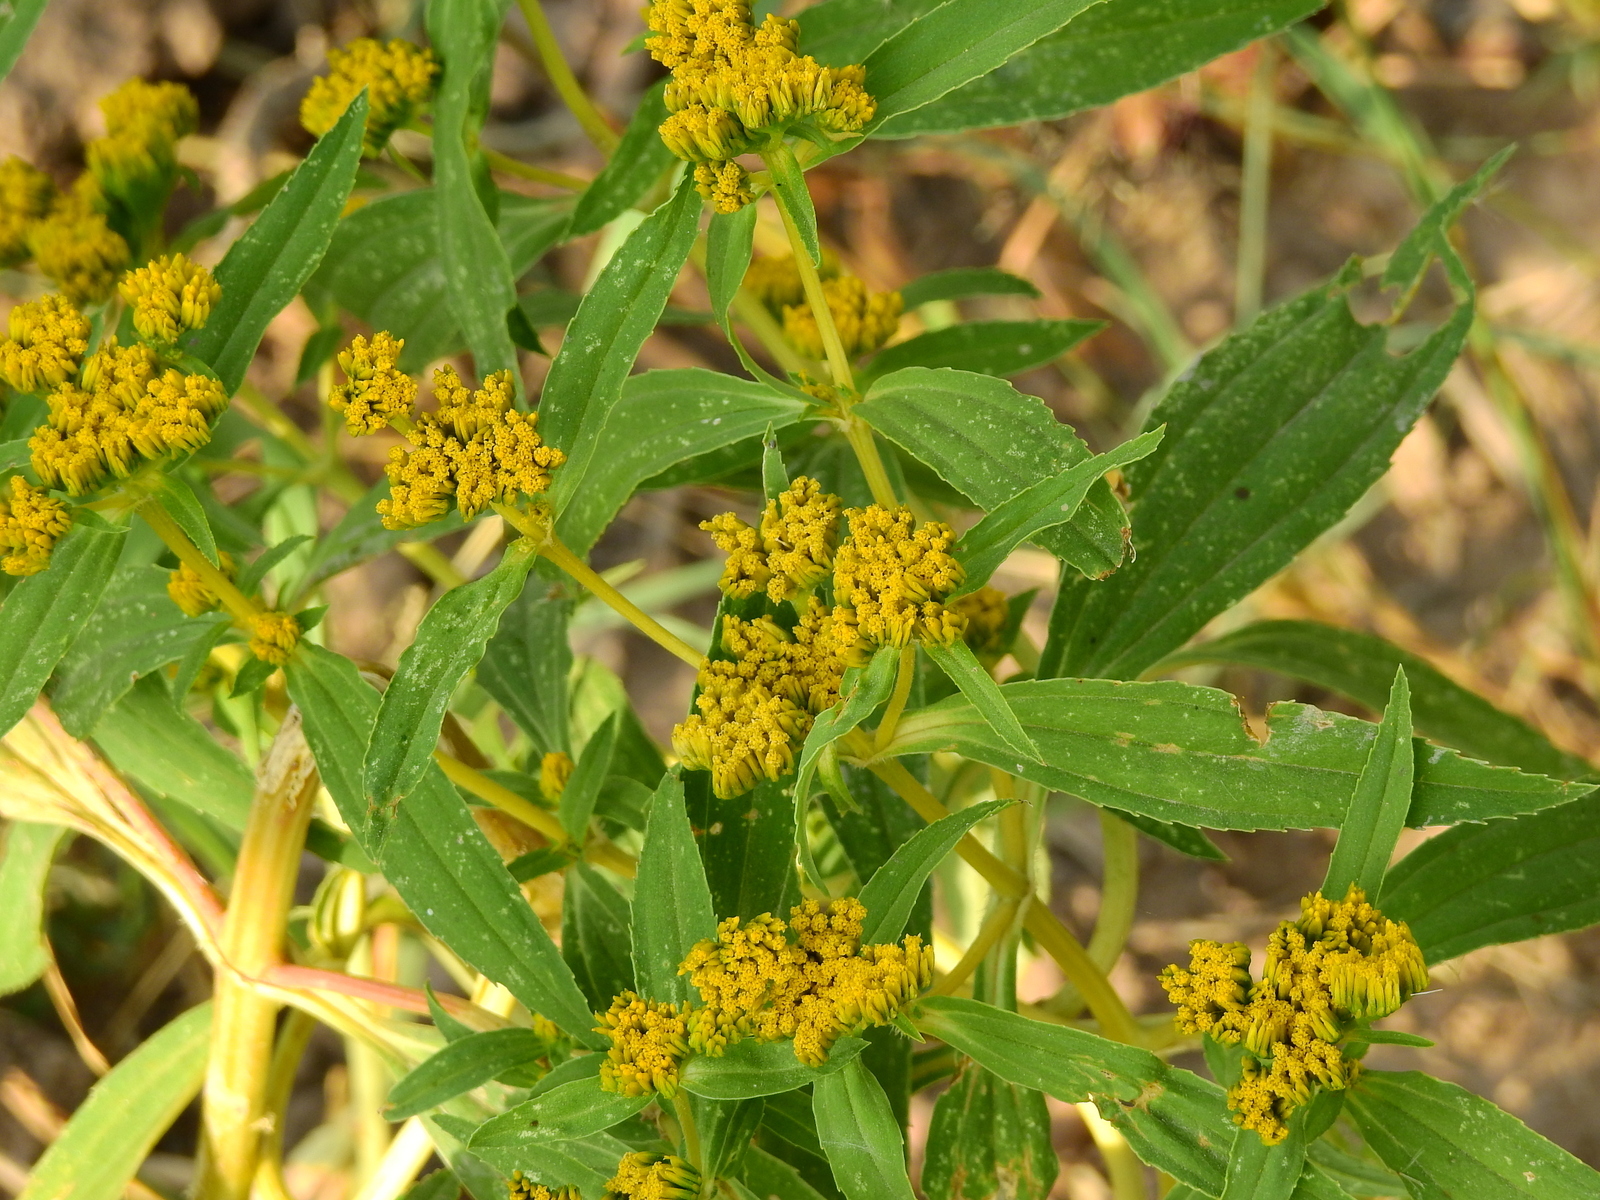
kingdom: Plantae
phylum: Tracheophyta
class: Magnoliopsida
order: Asterales
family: Asteraceae
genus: Flaveria
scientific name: Flaveria bidentis
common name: Coastal plain yellowtops
